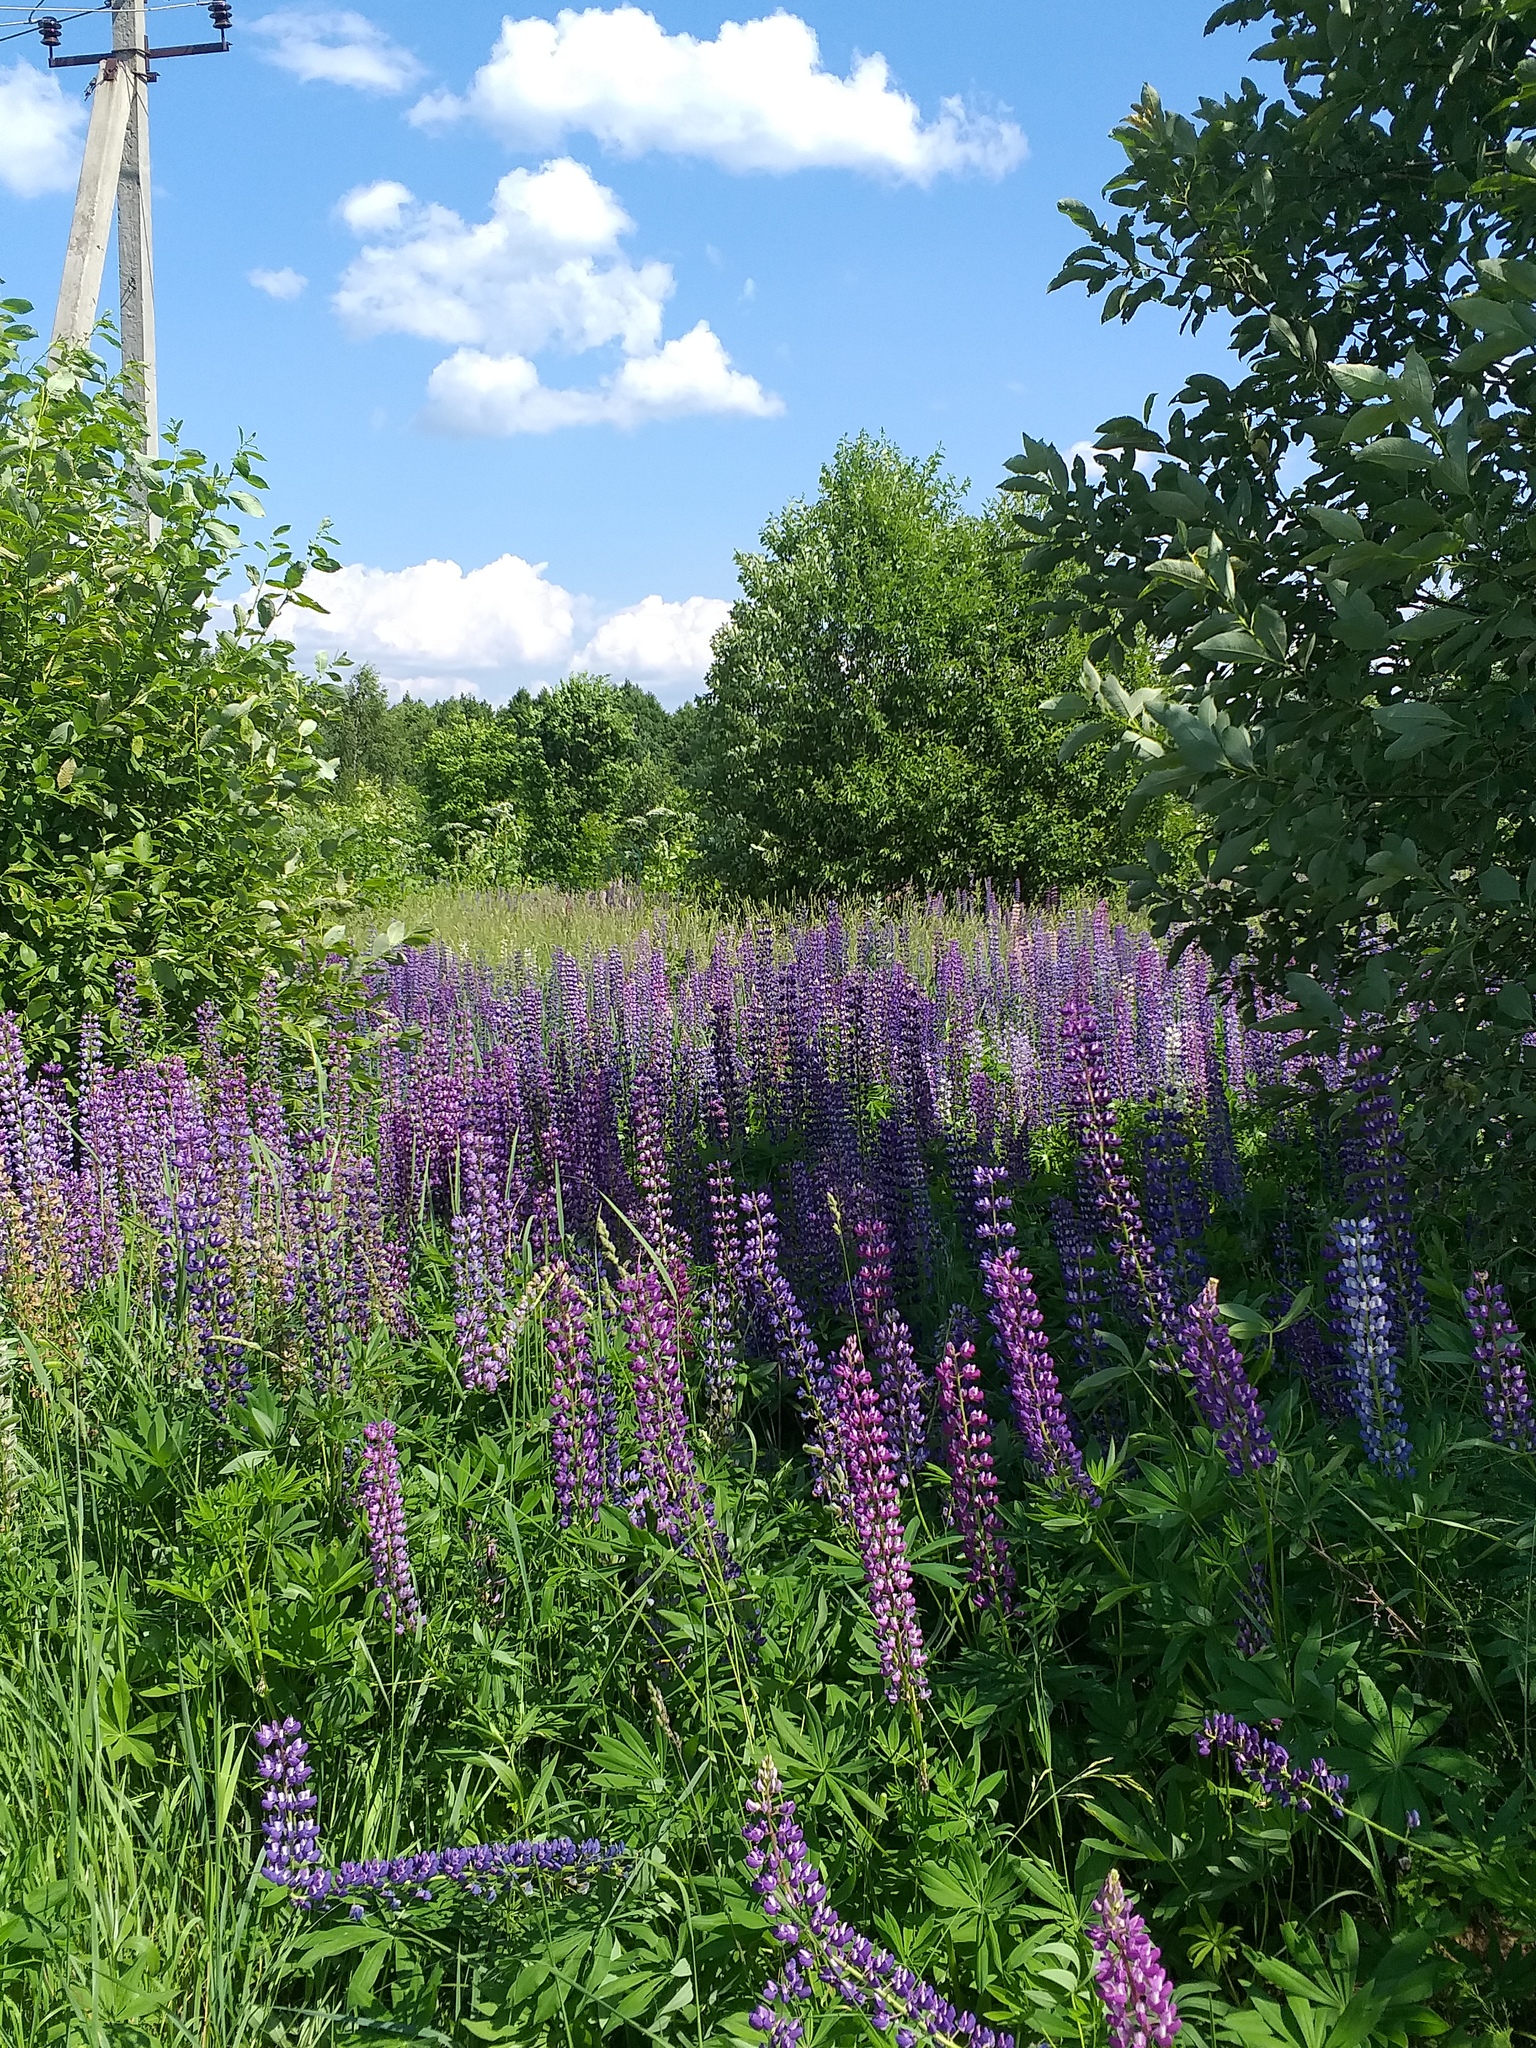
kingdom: Plantae
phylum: Tracheophyta
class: Magnoliopsida
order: Fabales
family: Fabaceae
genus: Lupinus
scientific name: Lupinus polyphyllus
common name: Garden lupin
